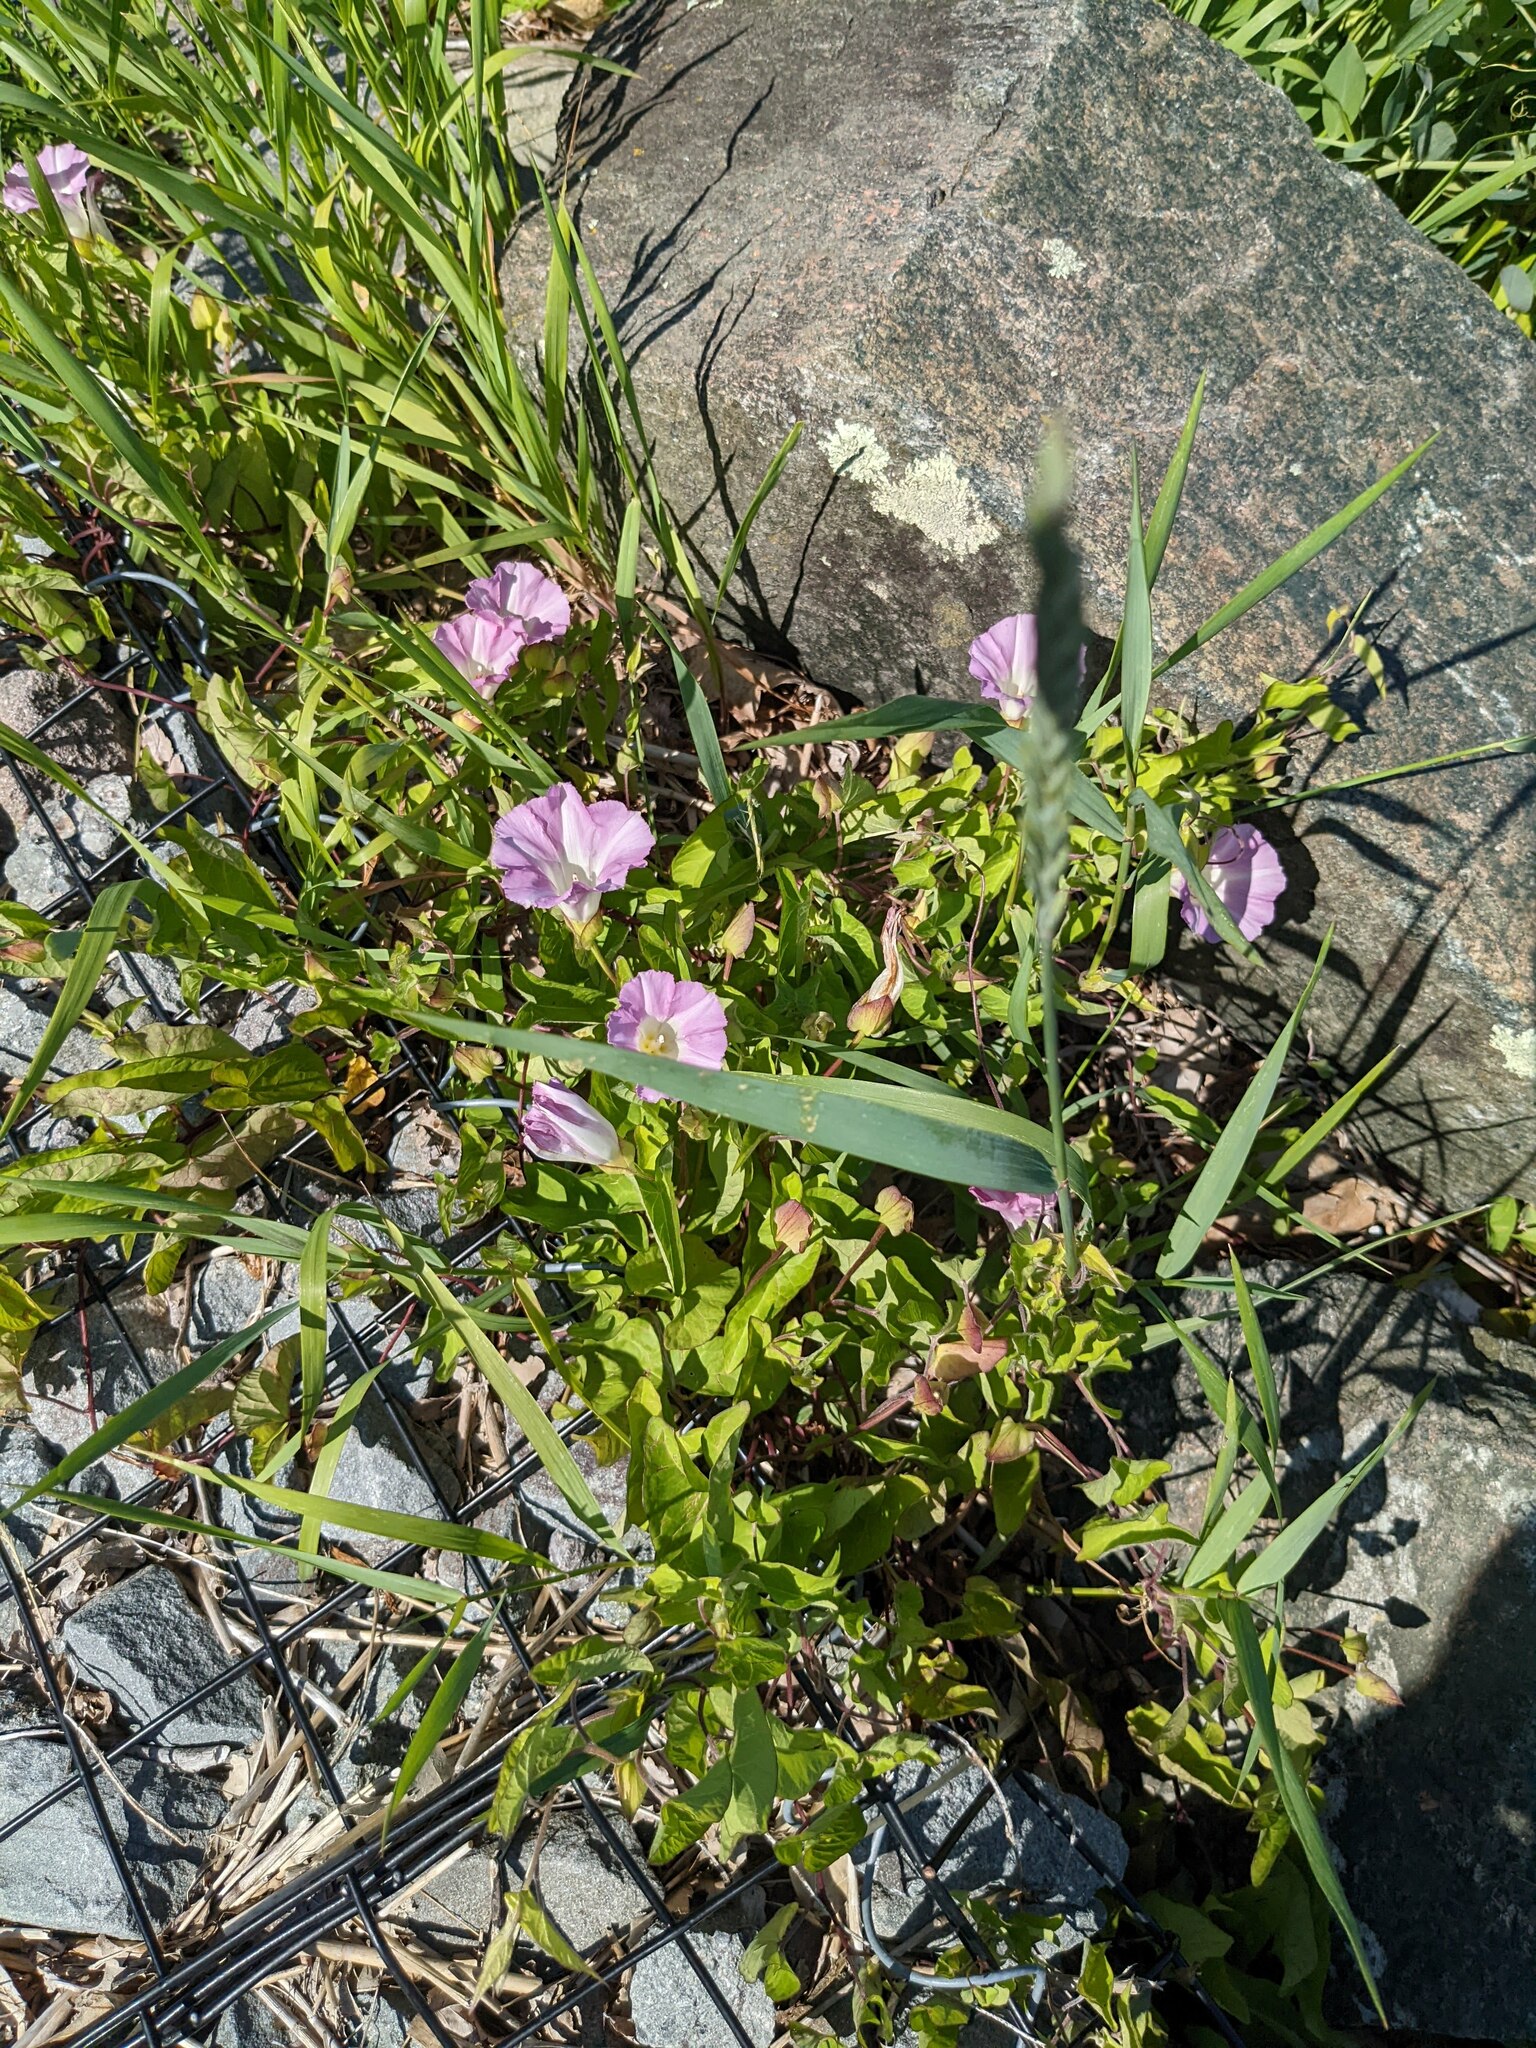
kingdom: Plantae
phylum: Tracheophyta
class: Magnoliopsida
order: Solanales
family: Convolvulaceae
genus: Calystegia
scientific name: Calystegia sepium
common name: Hedge bindweed
